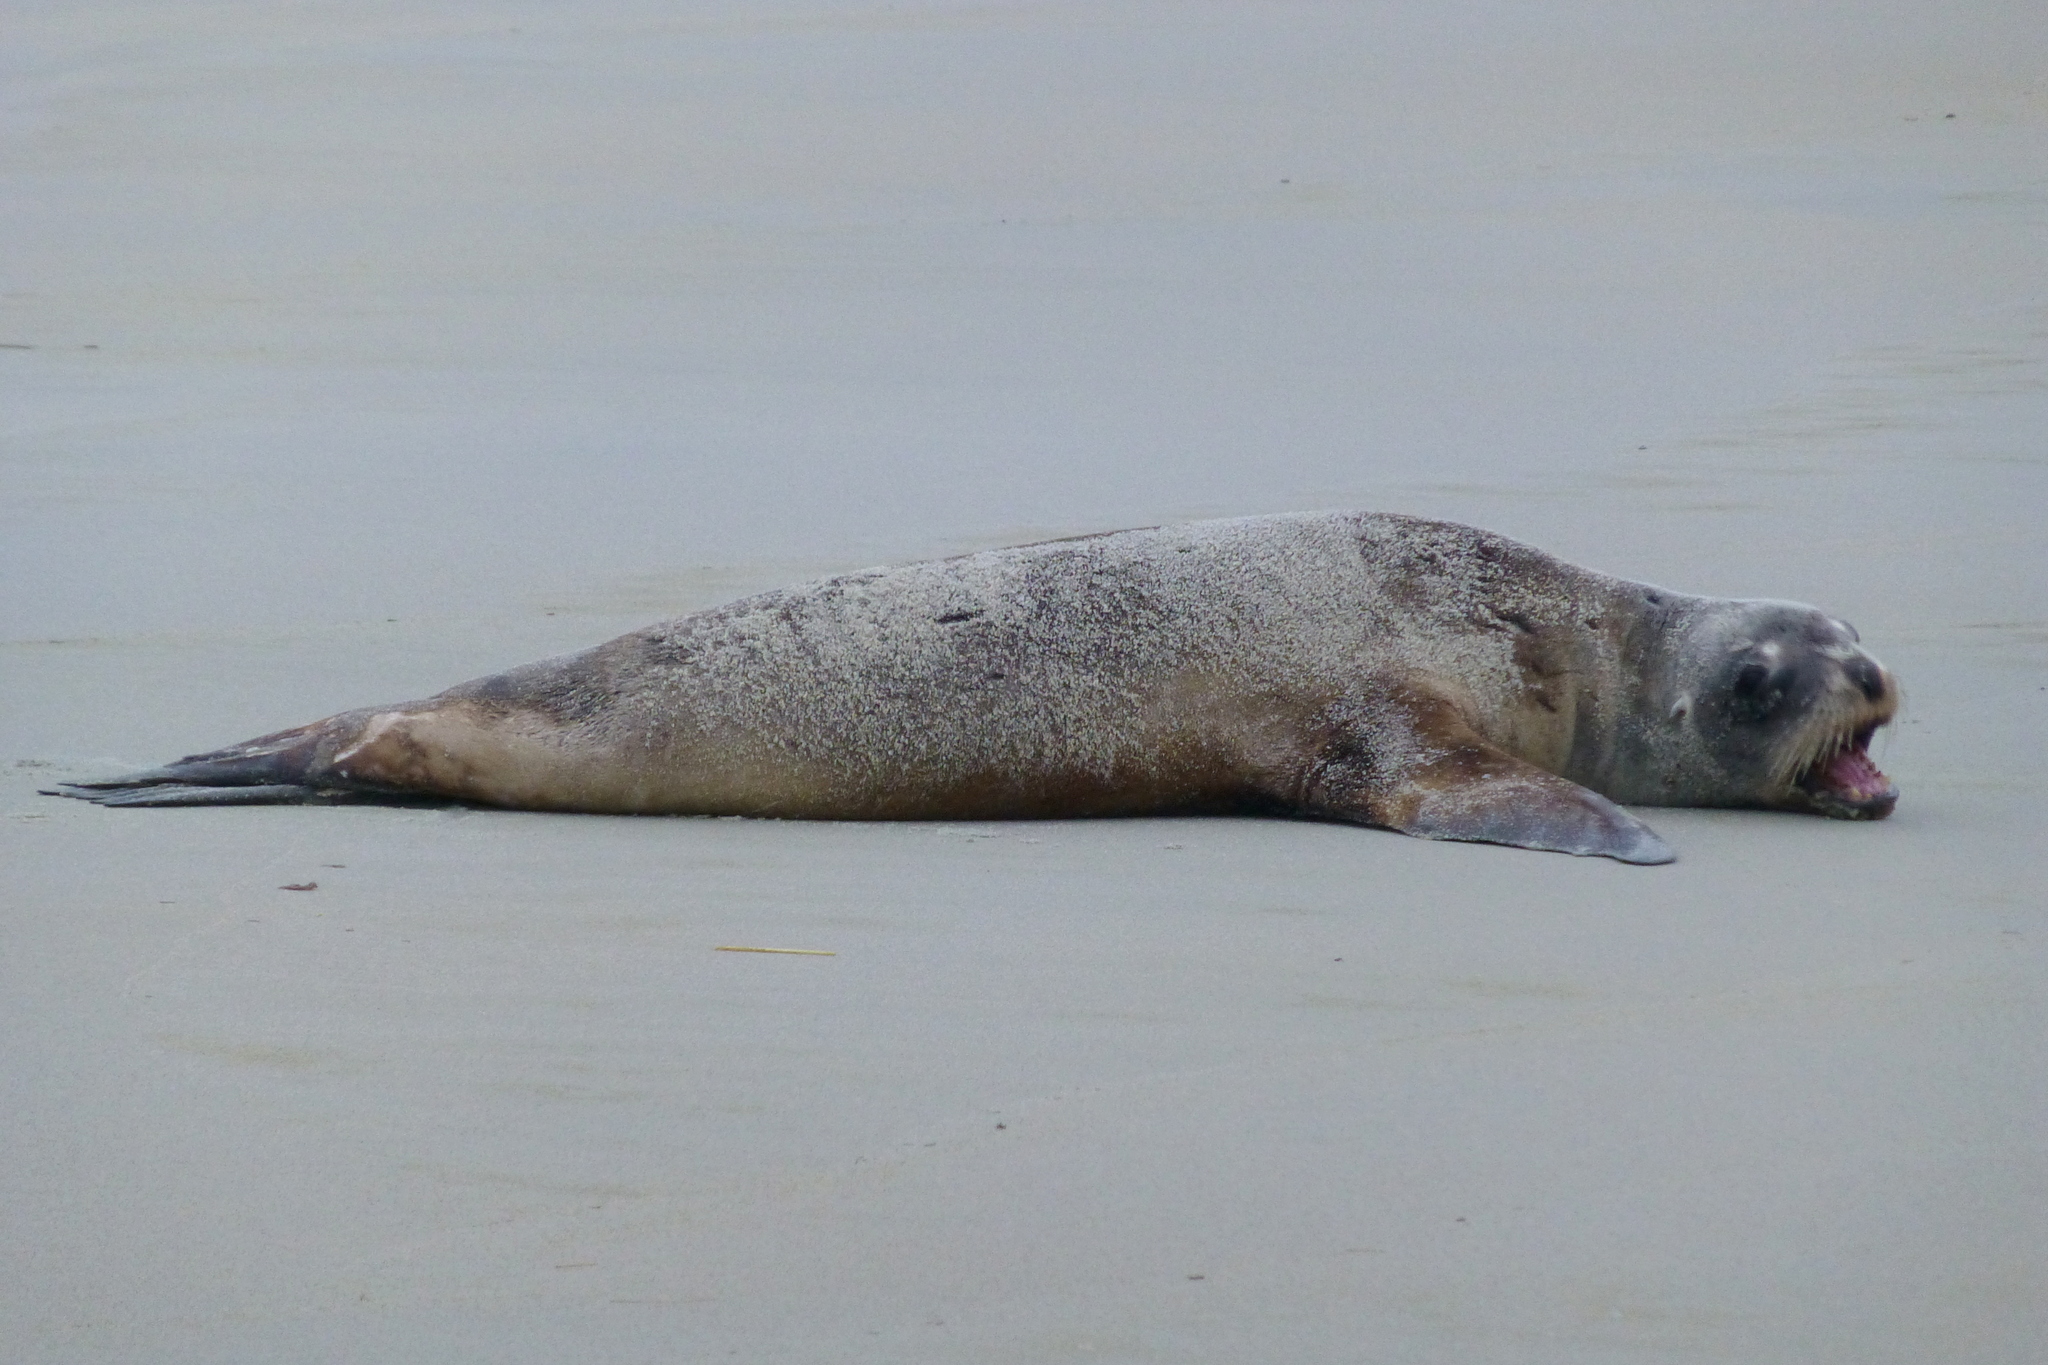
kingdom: Animalia
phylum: Chordata
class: Mammalia
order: Carnivora
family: Otariidae
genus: Phocarctos
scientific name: Phocarctos hookeri
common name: New zealand sea lion
